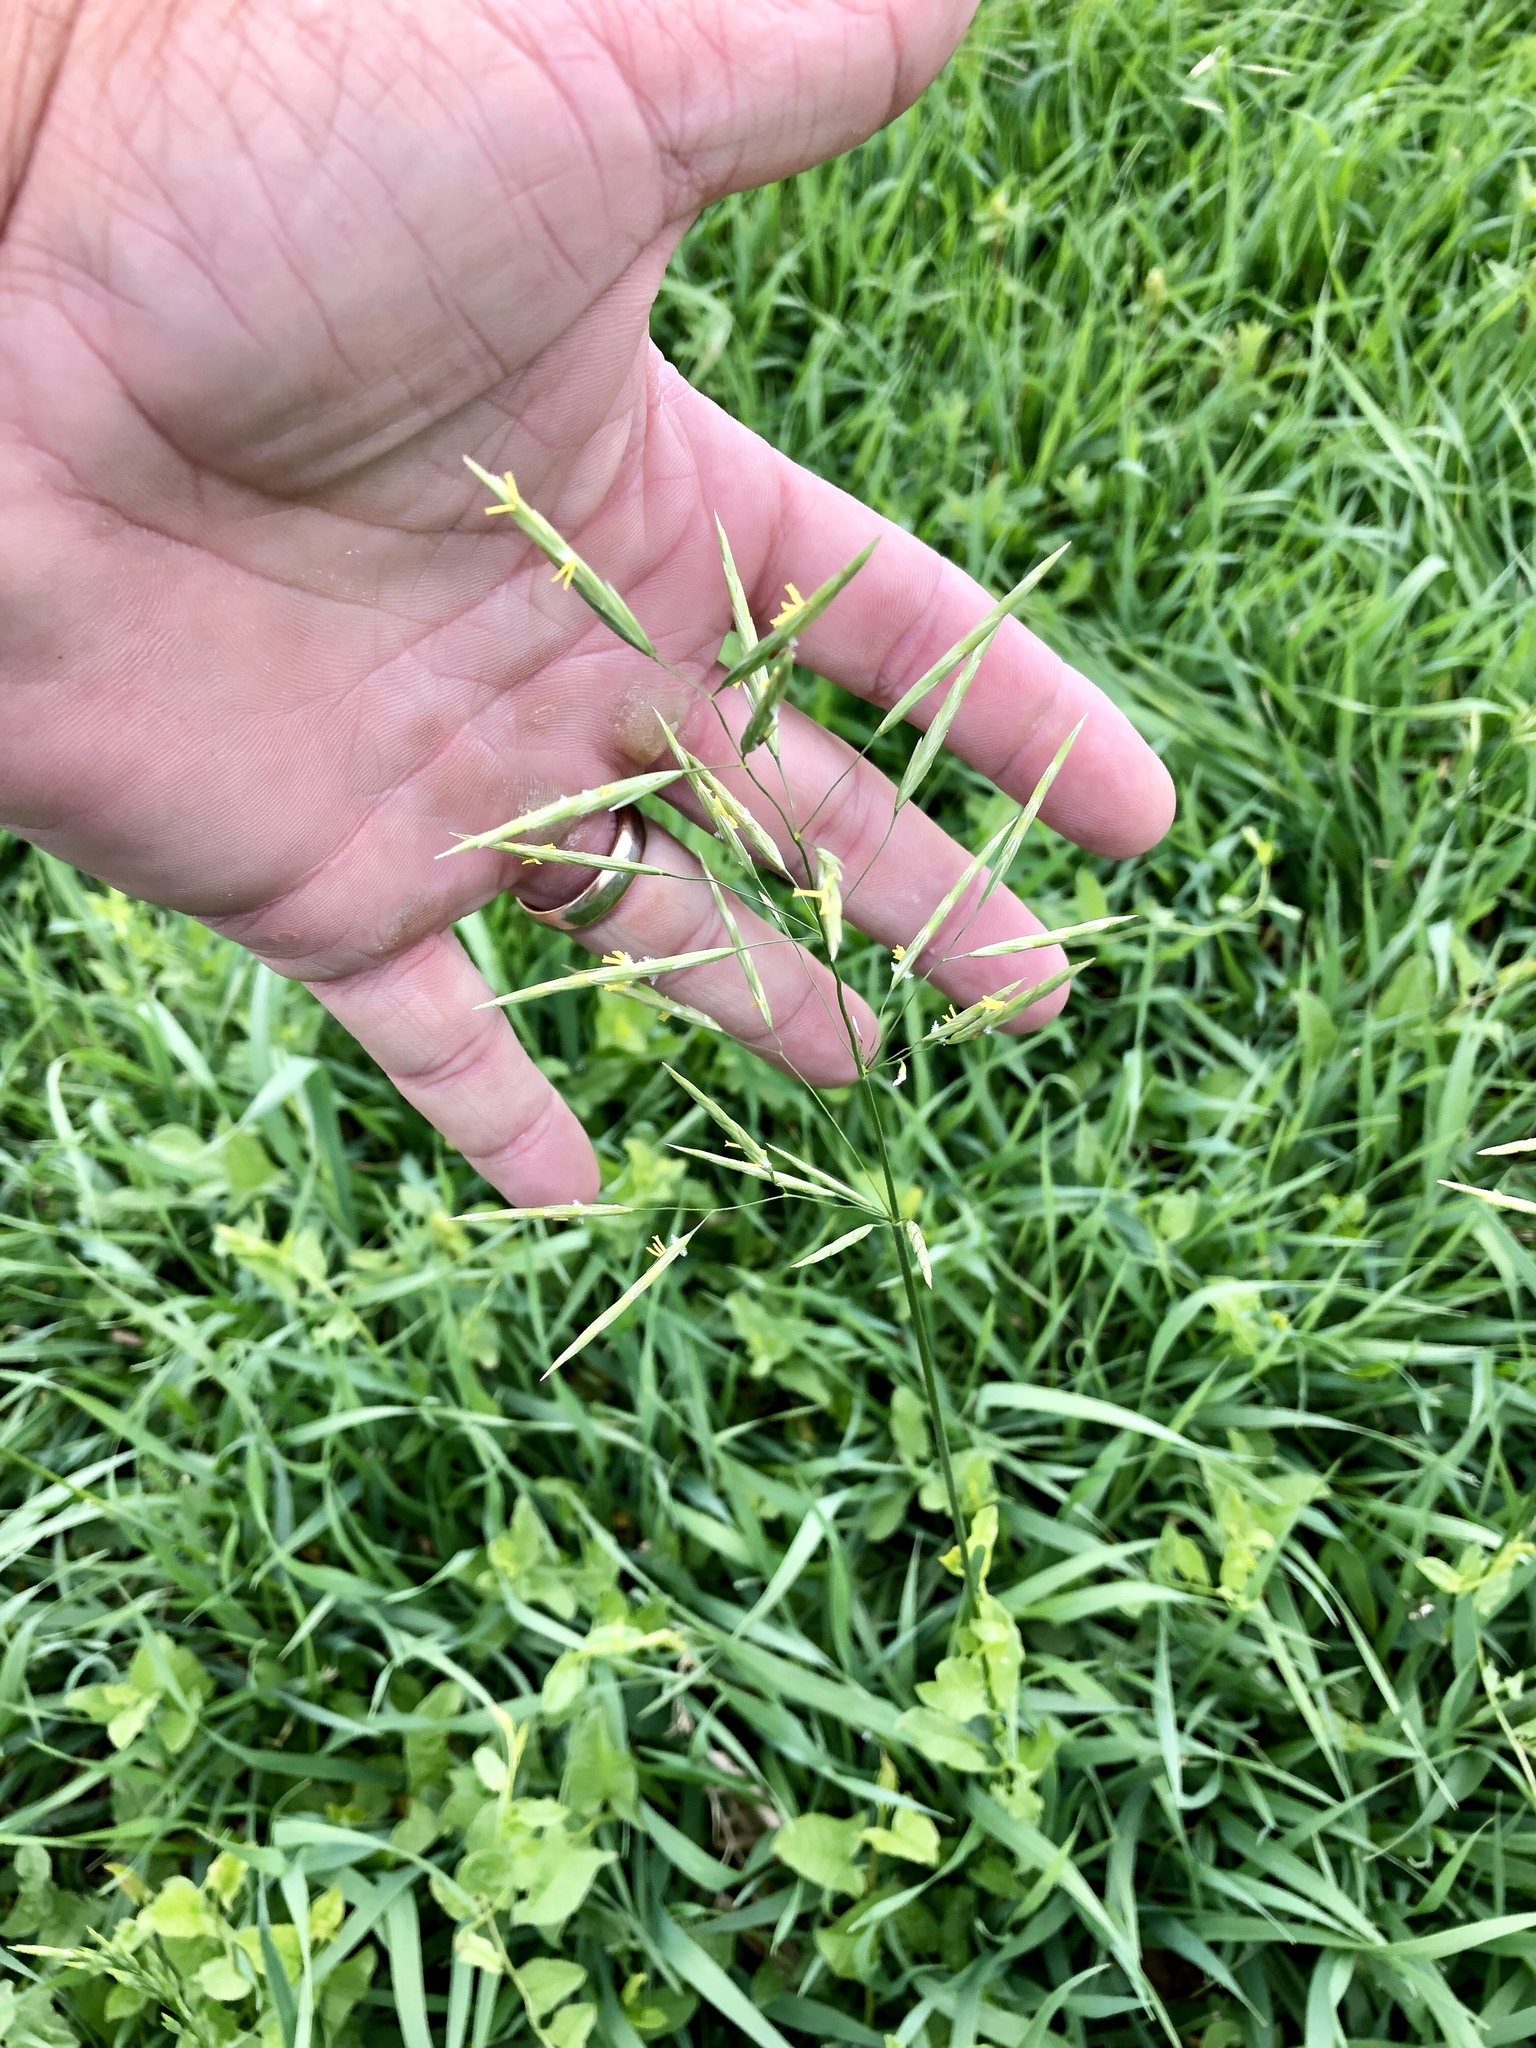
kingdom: Plantae
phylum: Tracheophyta
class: Liliopsida
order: Poales
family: Poaceae
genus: Bromus
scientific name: Bromus inermis
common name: Smooth brome
